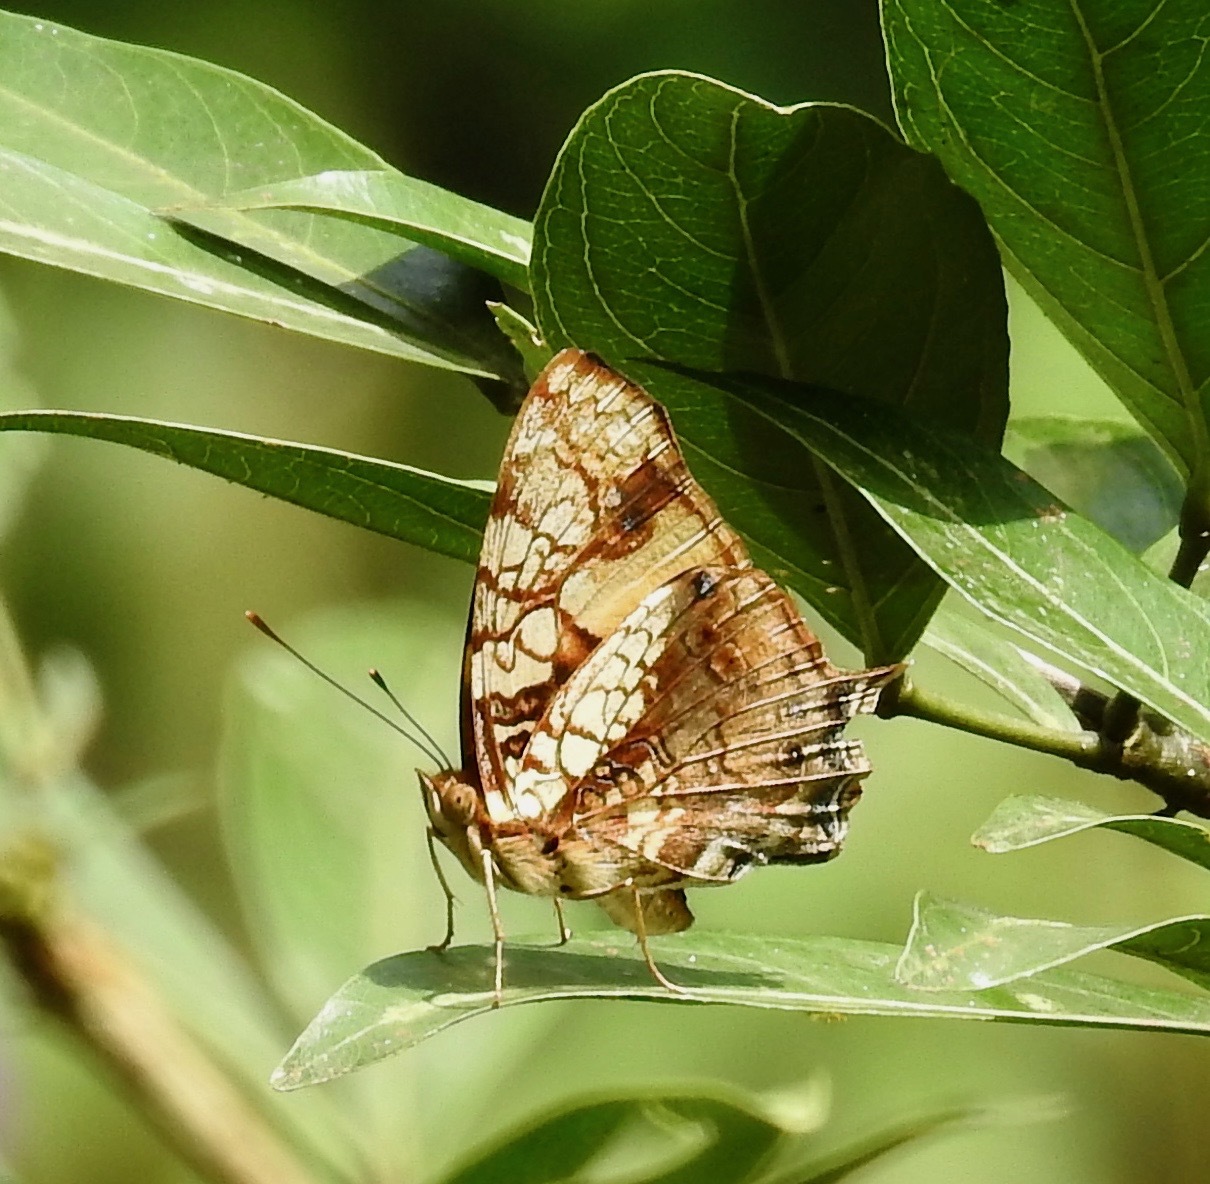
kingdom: Animalia
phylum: Arthropoda
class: Insecta
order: Lepidoptera
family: Nymphalidae
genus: Hypanartia
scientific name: Hypanartia lethe
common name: Orange mapwing
